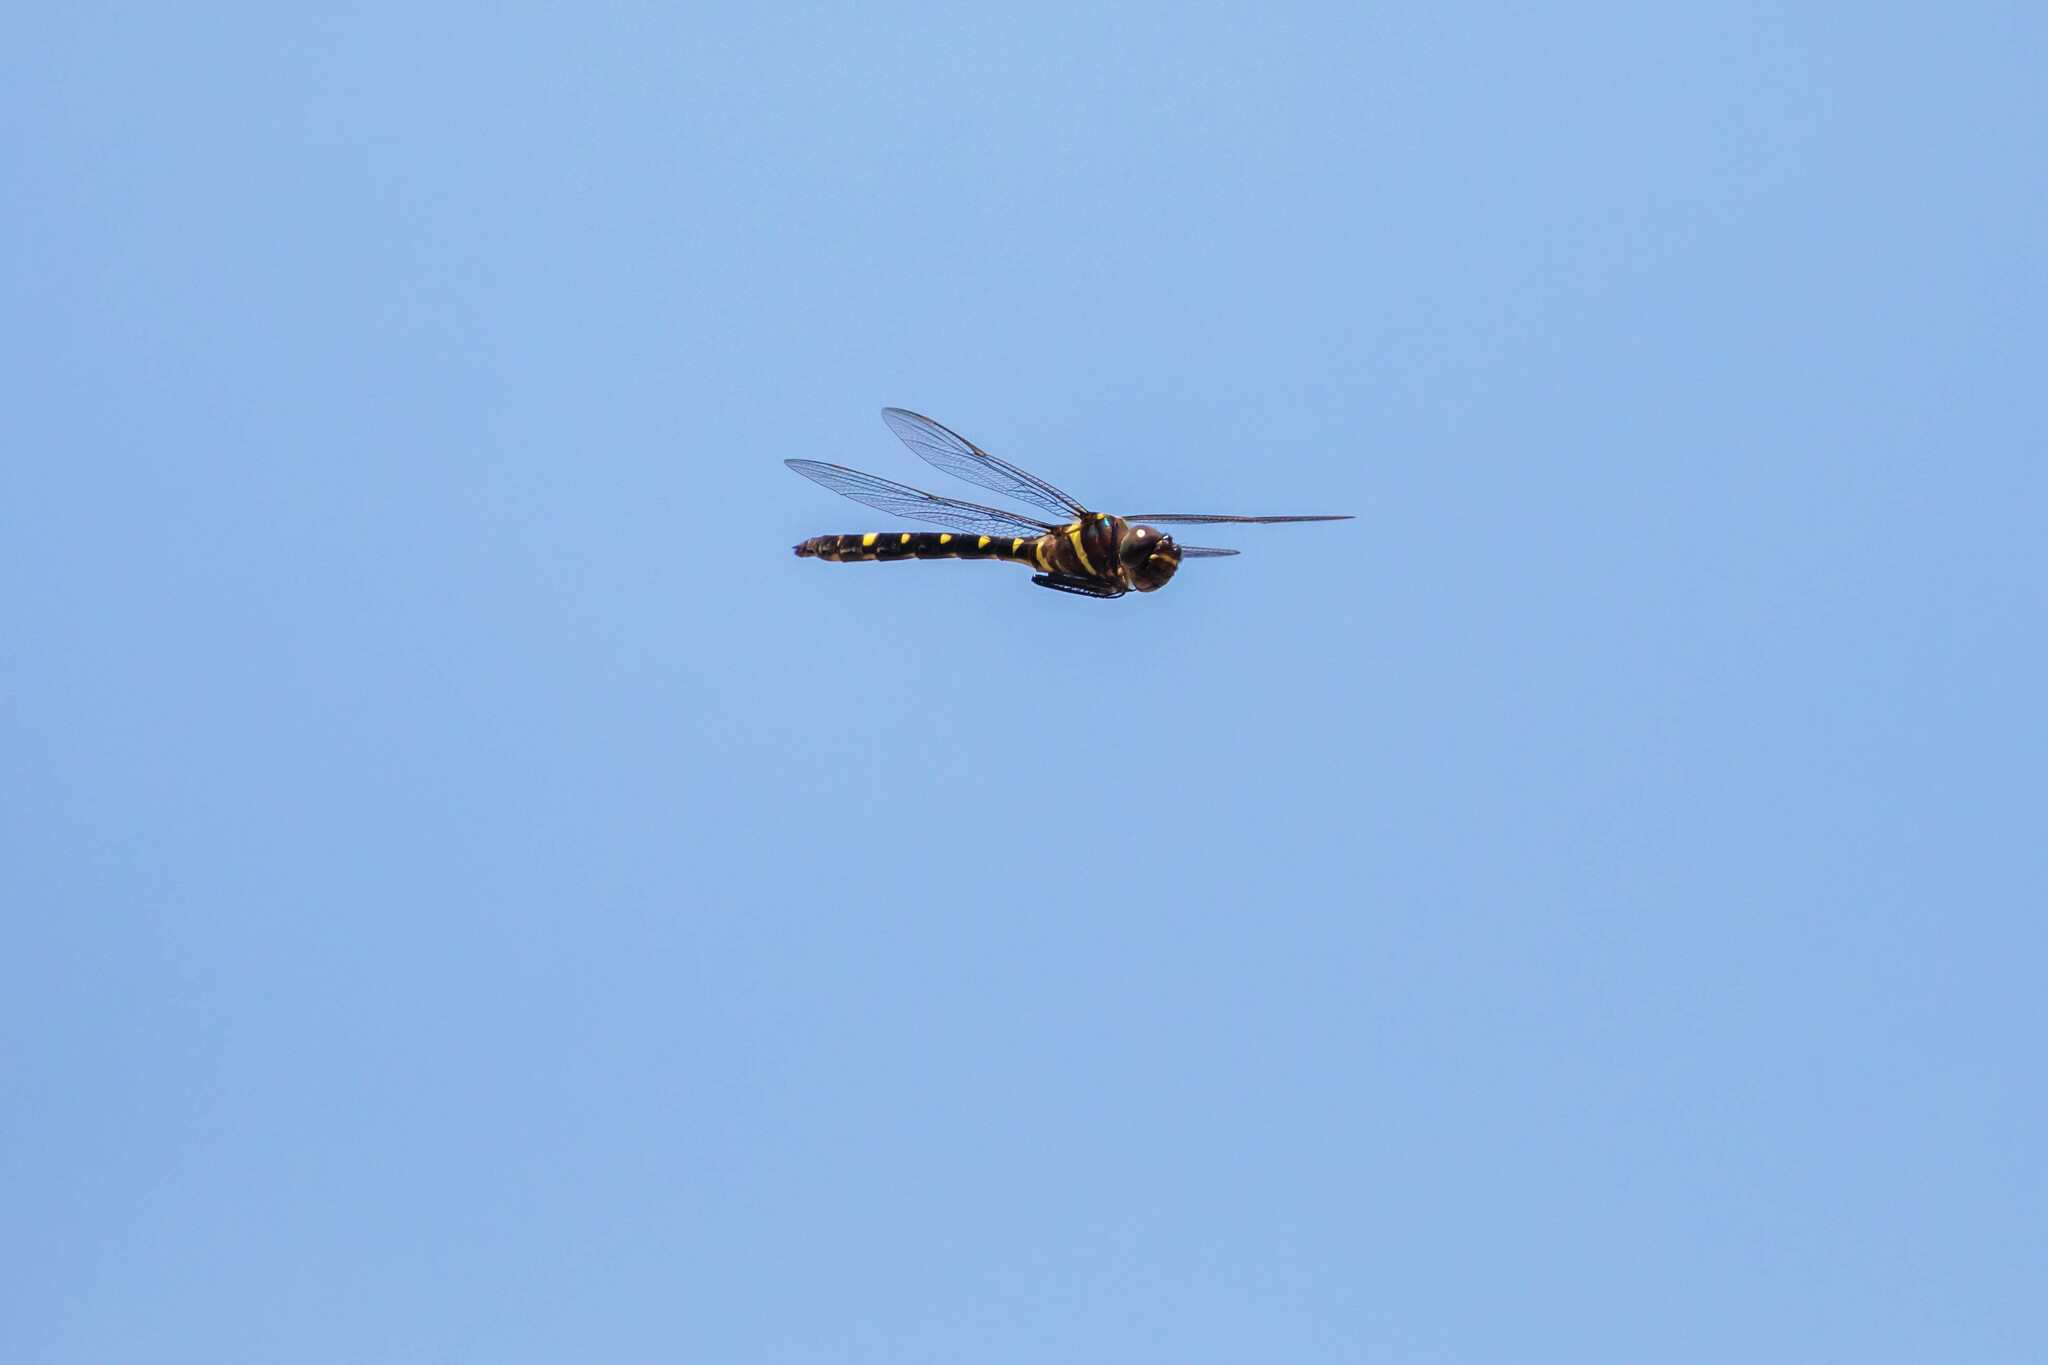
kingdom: Animalia
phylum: Arthropoda
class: Insecta
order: Odonata
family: Macromiidae
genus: Macromia
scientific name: Macromia illinoiensis
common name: Swift river cruiser
